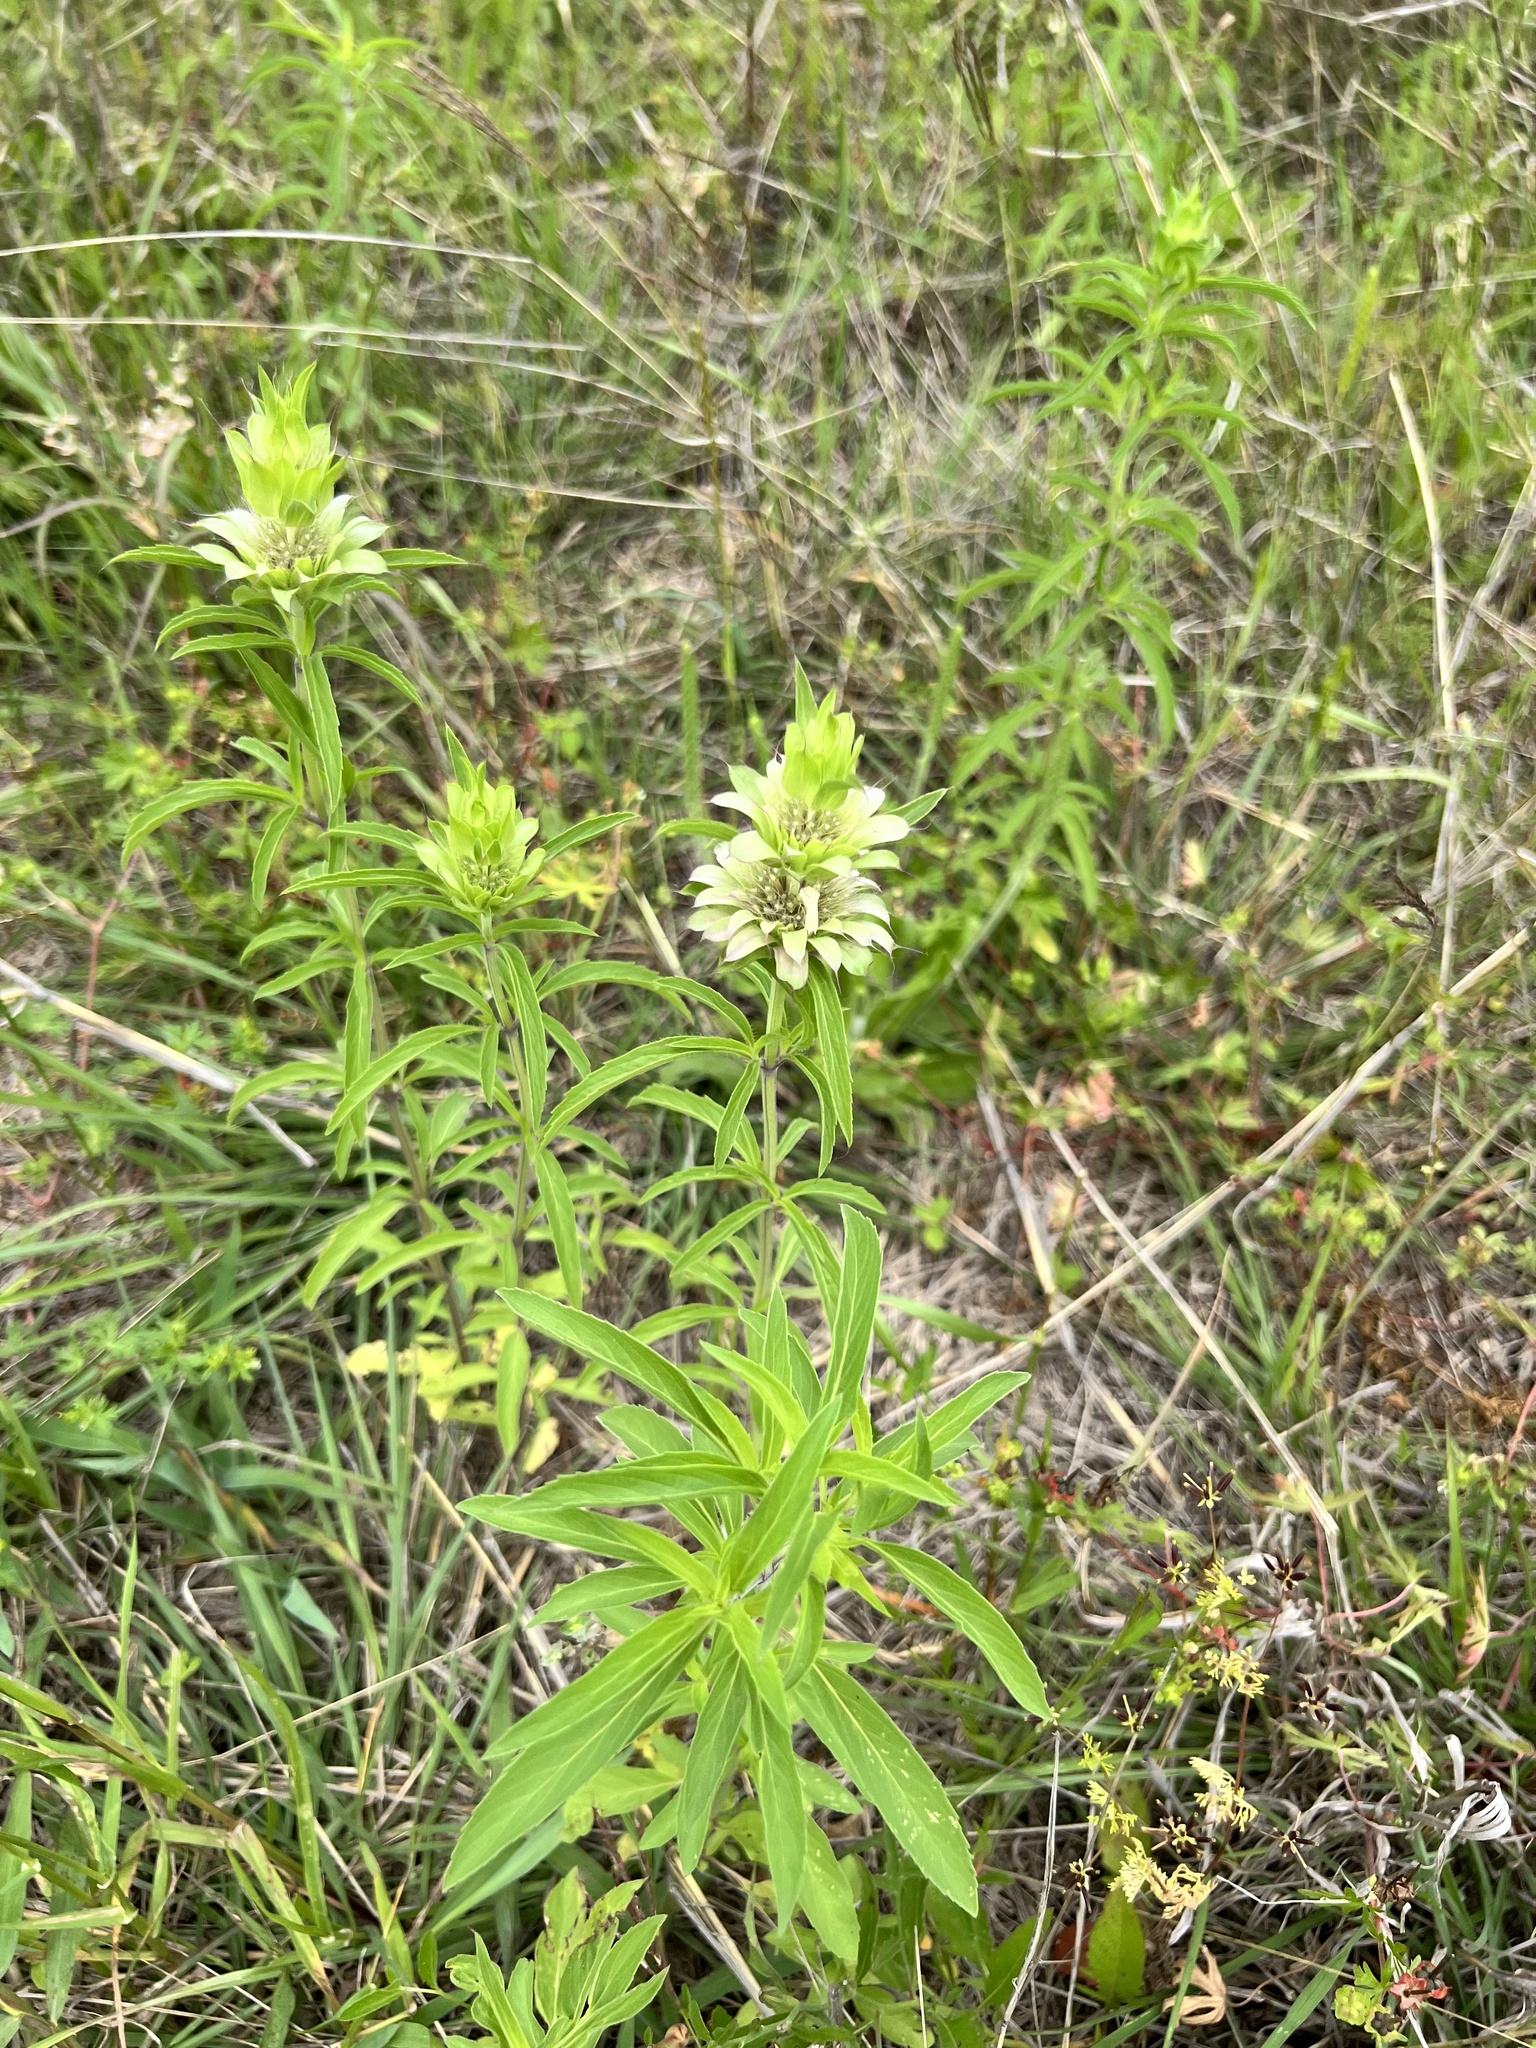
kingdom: Plantae
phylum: Tracheophyta
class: Magnoliopsida
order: Lamiales
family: Lamiaceae
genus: Monarda
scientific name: Monarda citriodora
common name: Lemon beebalm
